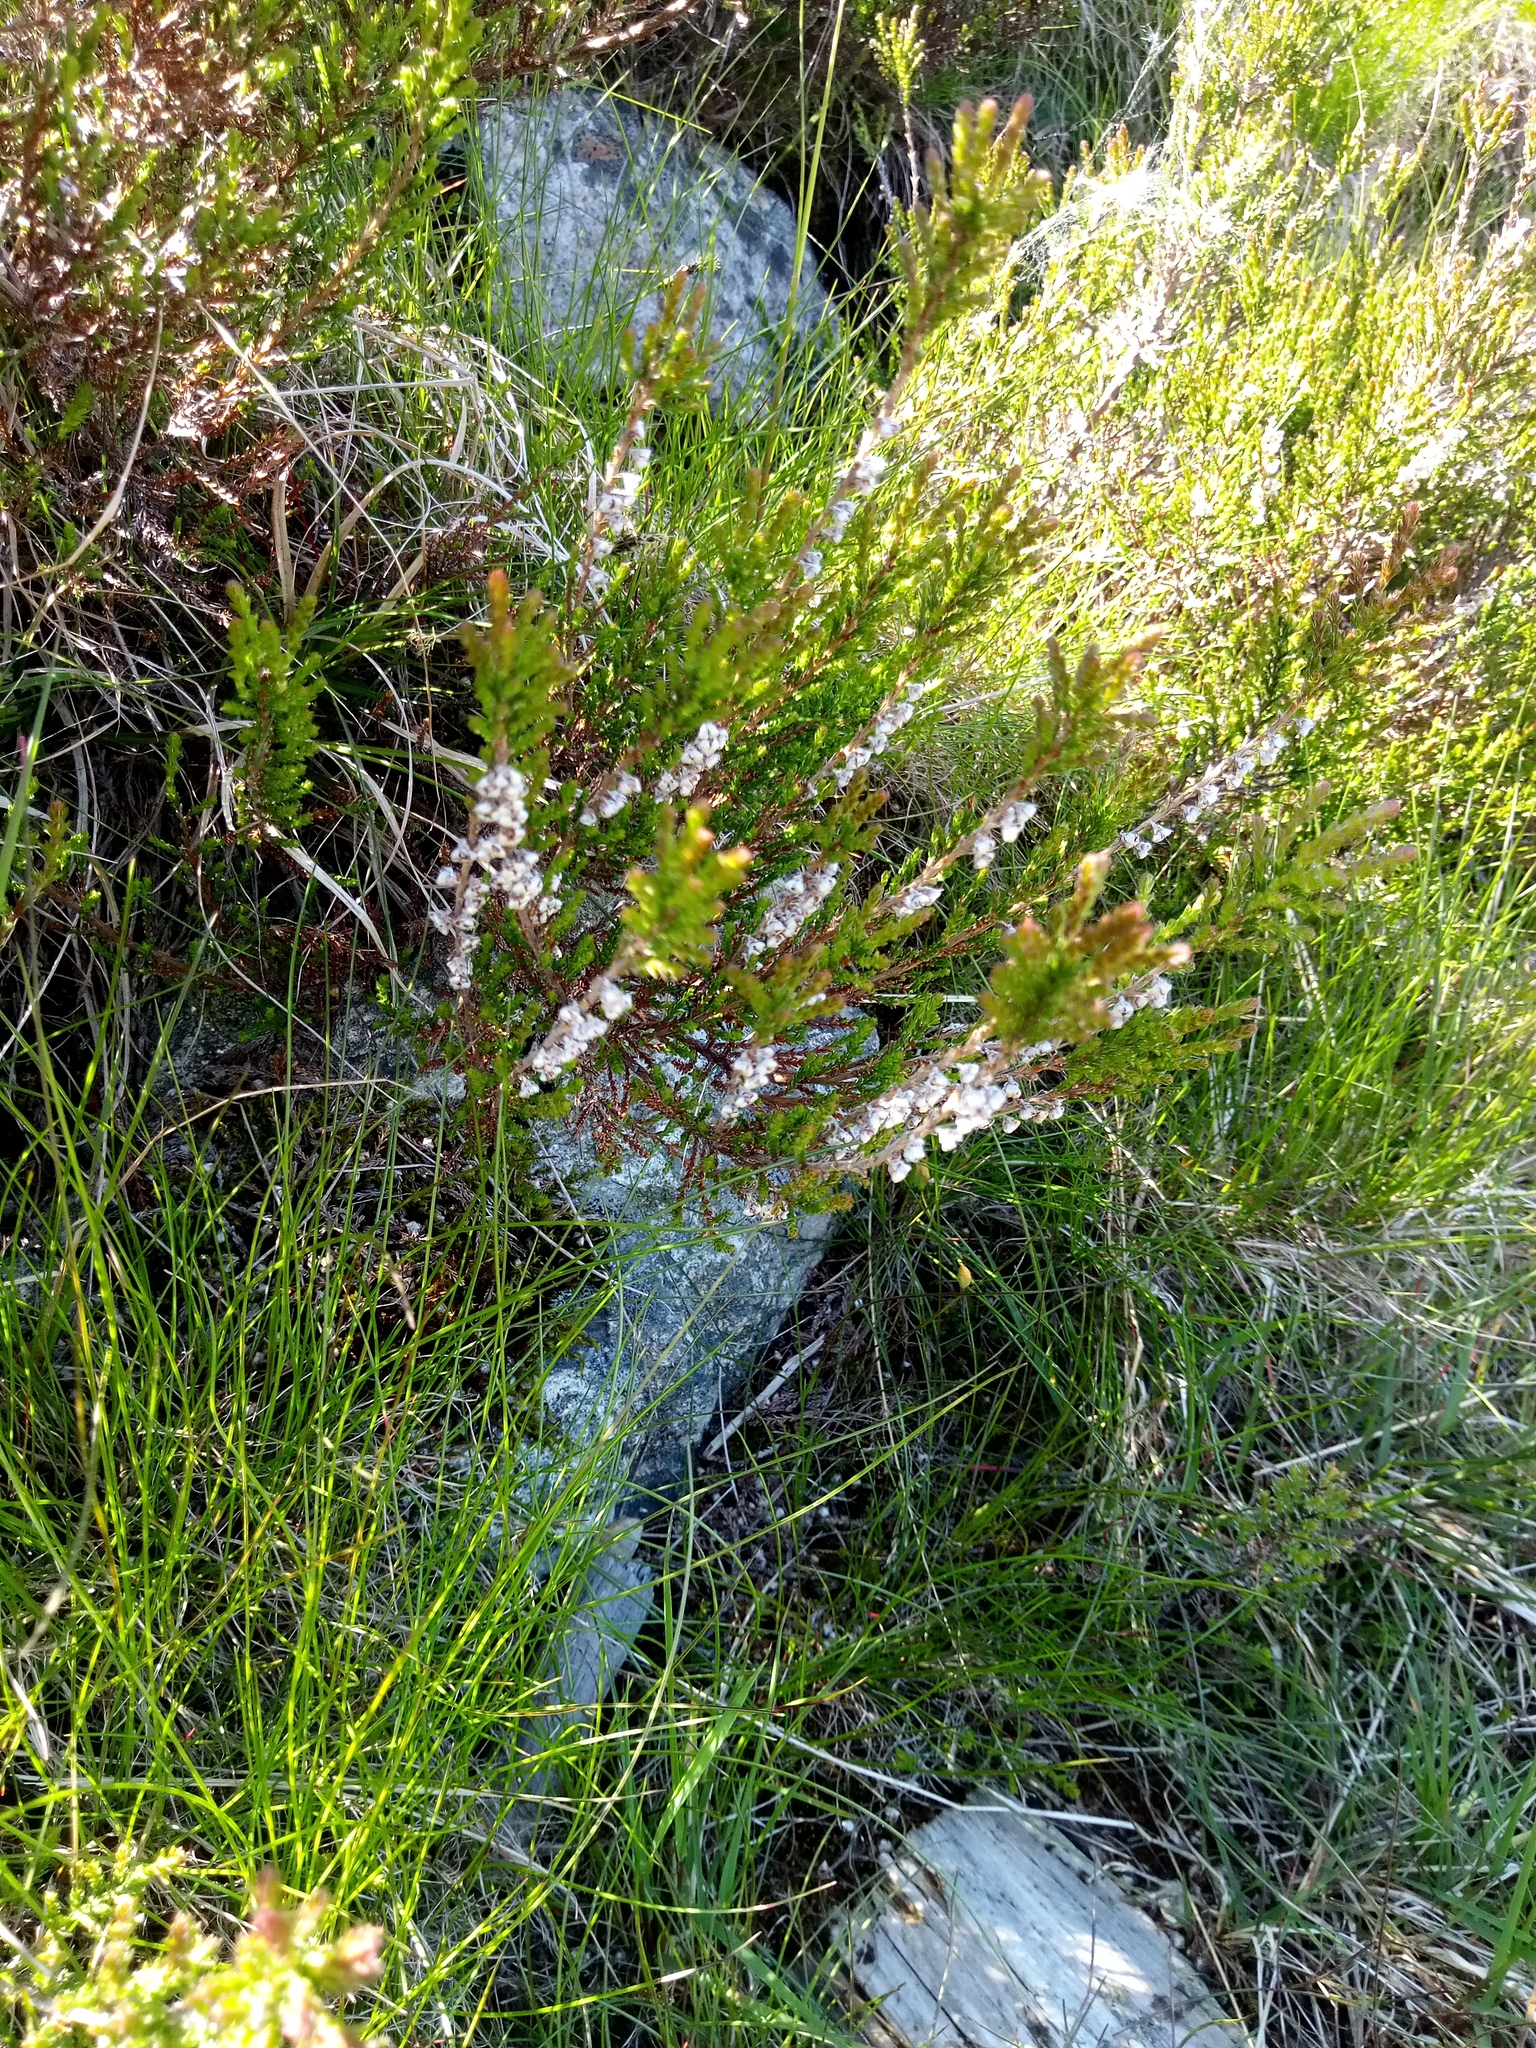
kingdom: Plantae
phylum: Tracheophyta
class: Magnoliopsida
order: Ericales
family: Ericaceae
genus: Calluna
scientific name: Calluna vulgaris
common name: Heather
